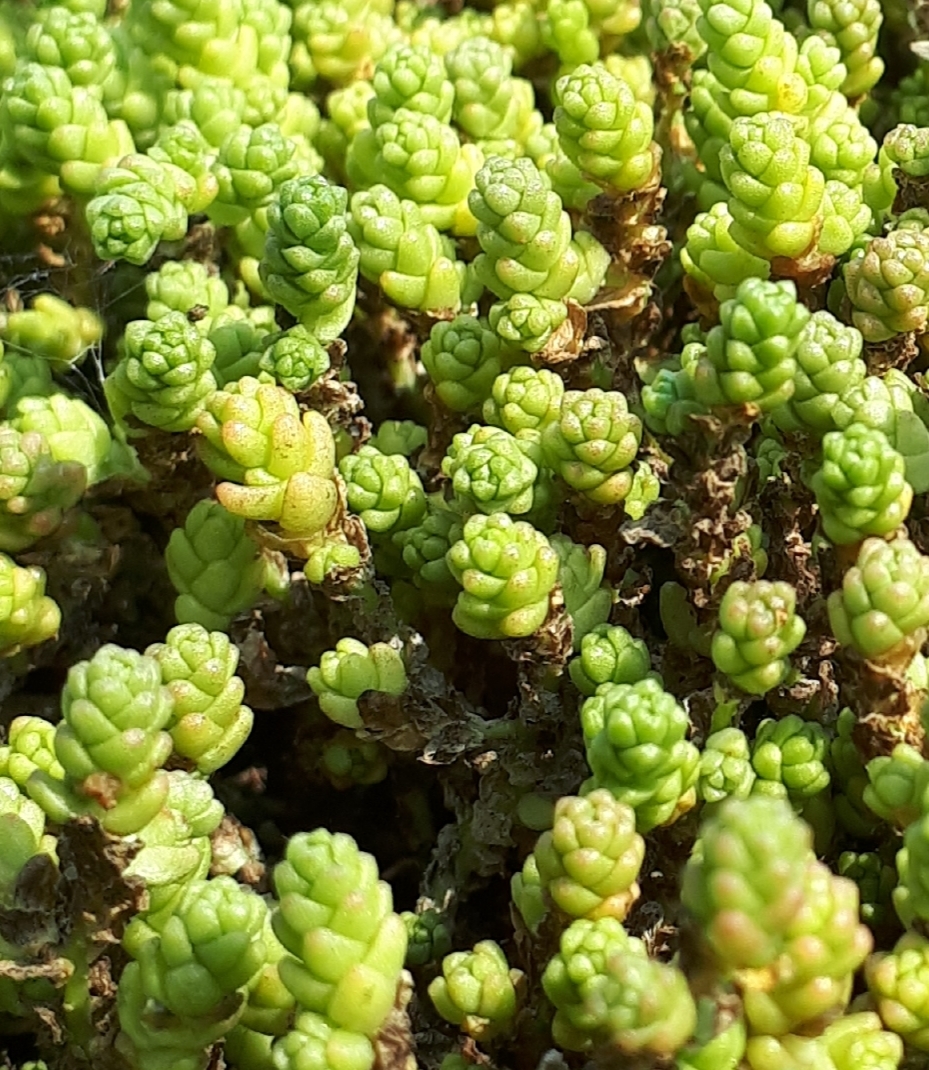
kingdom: Plantae
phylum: Tracheophyta
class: Magnoliopsida
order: Saxifragales
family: Crassulaceae
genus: Sedum
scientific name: Sedum acre
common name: Biting stonecrop
